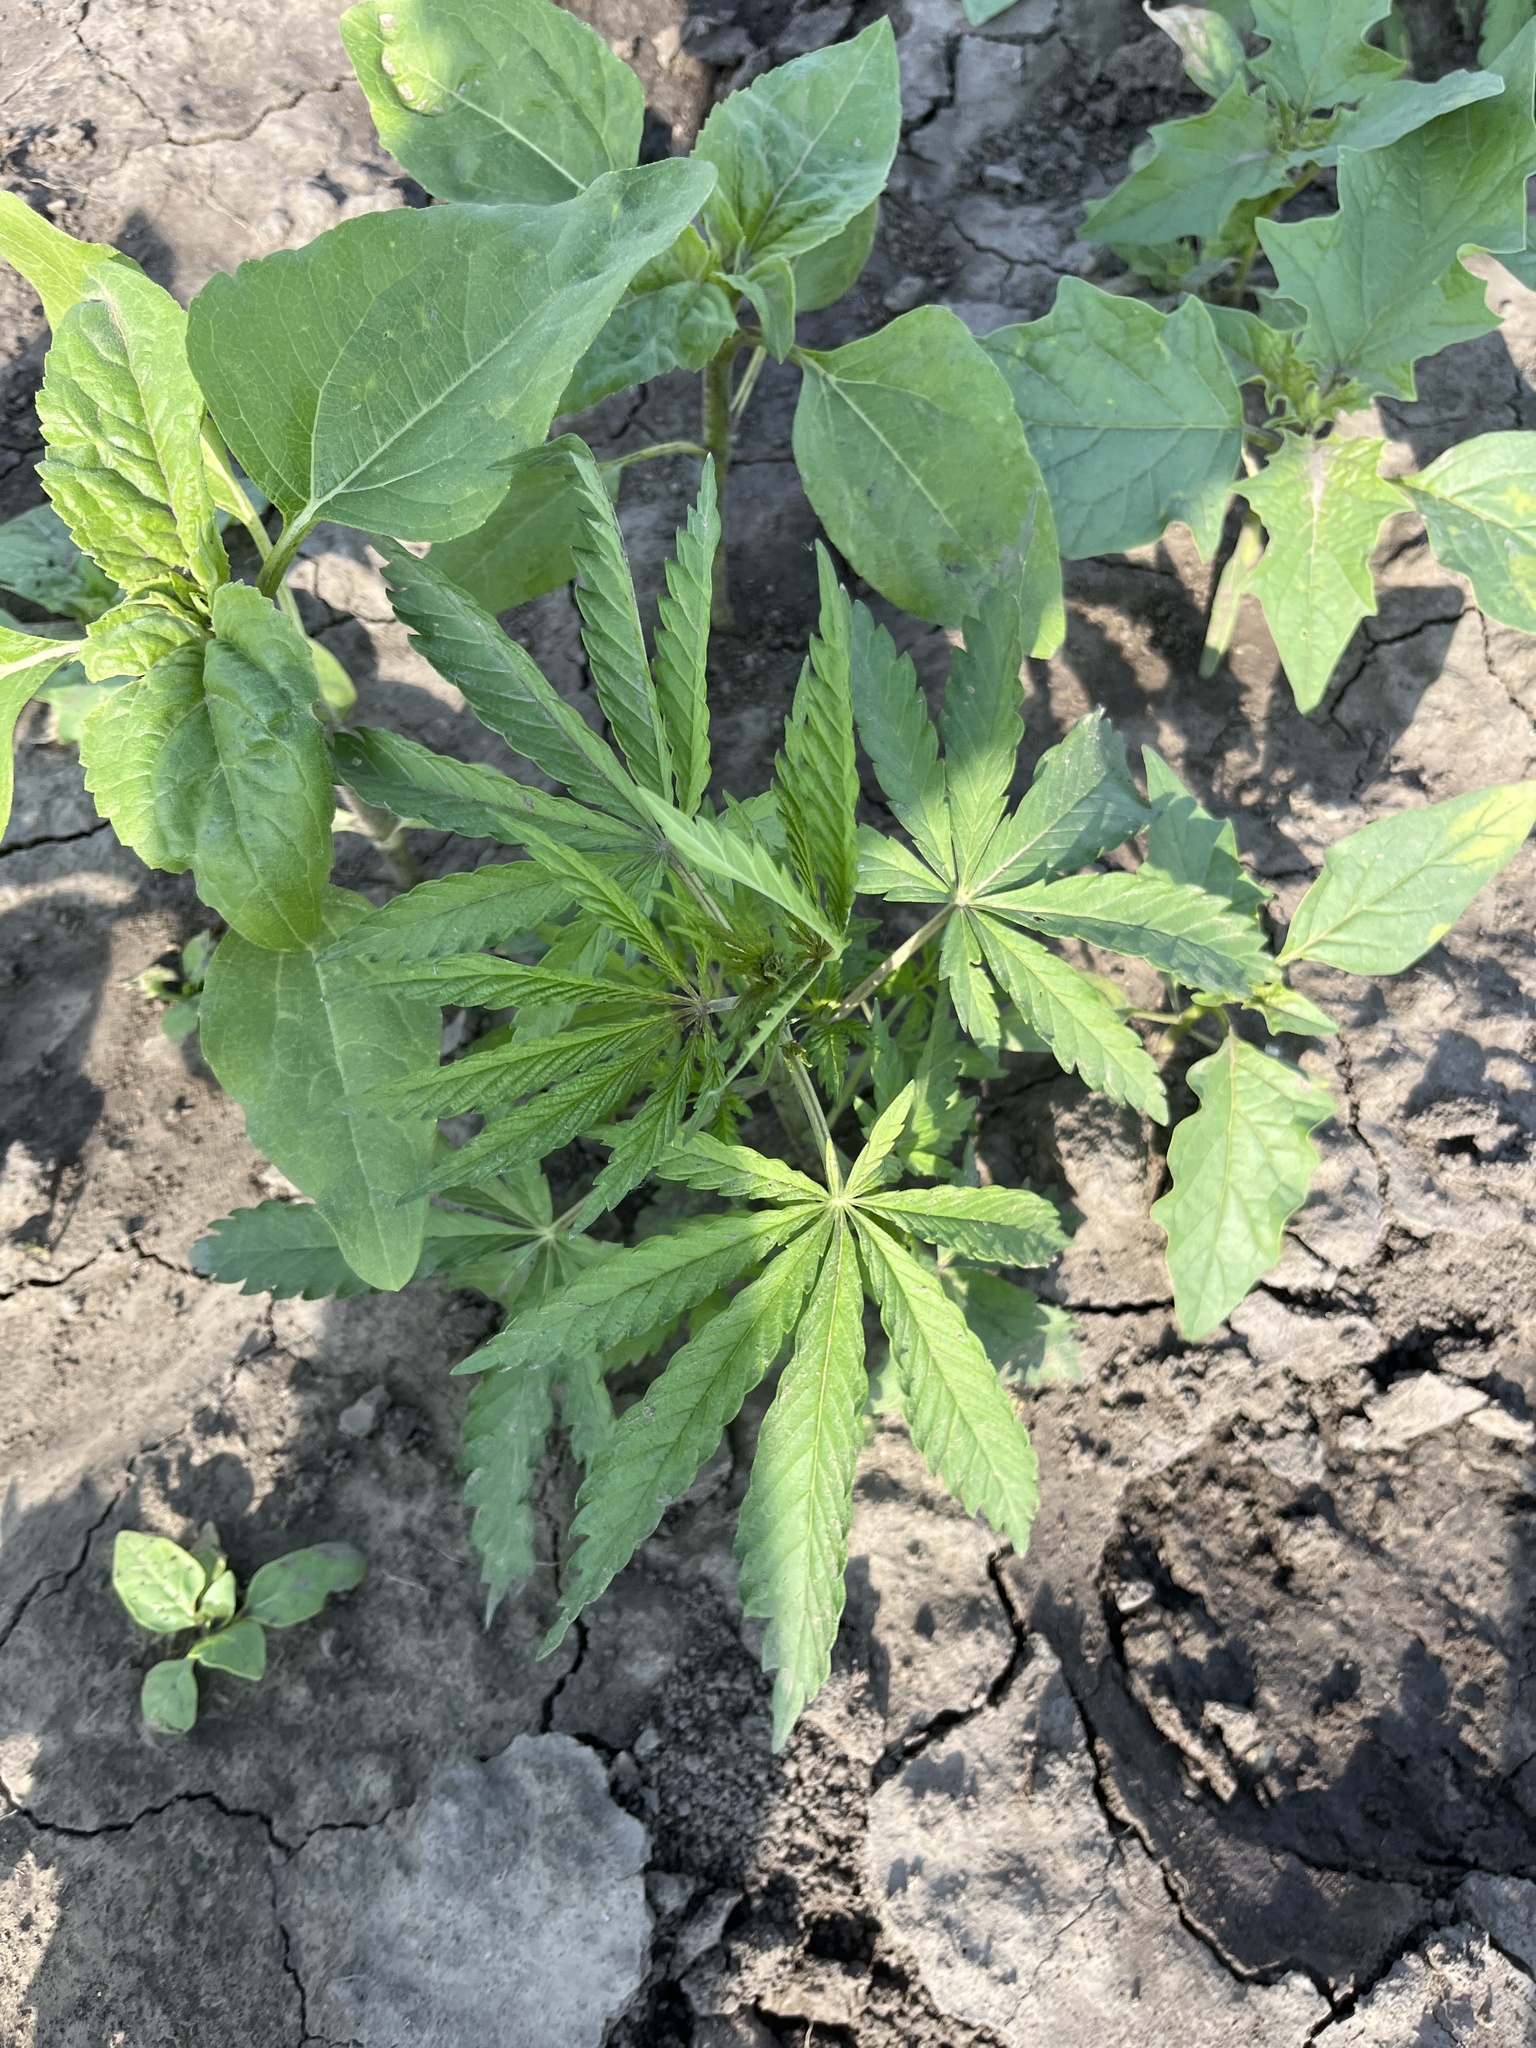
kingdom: Plantae
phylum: Tracheophyta
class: Magnoliopsida
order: Rosales
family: Cannabaceae
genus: Cannabis
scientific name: Cannabis sativa
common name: Hemp
